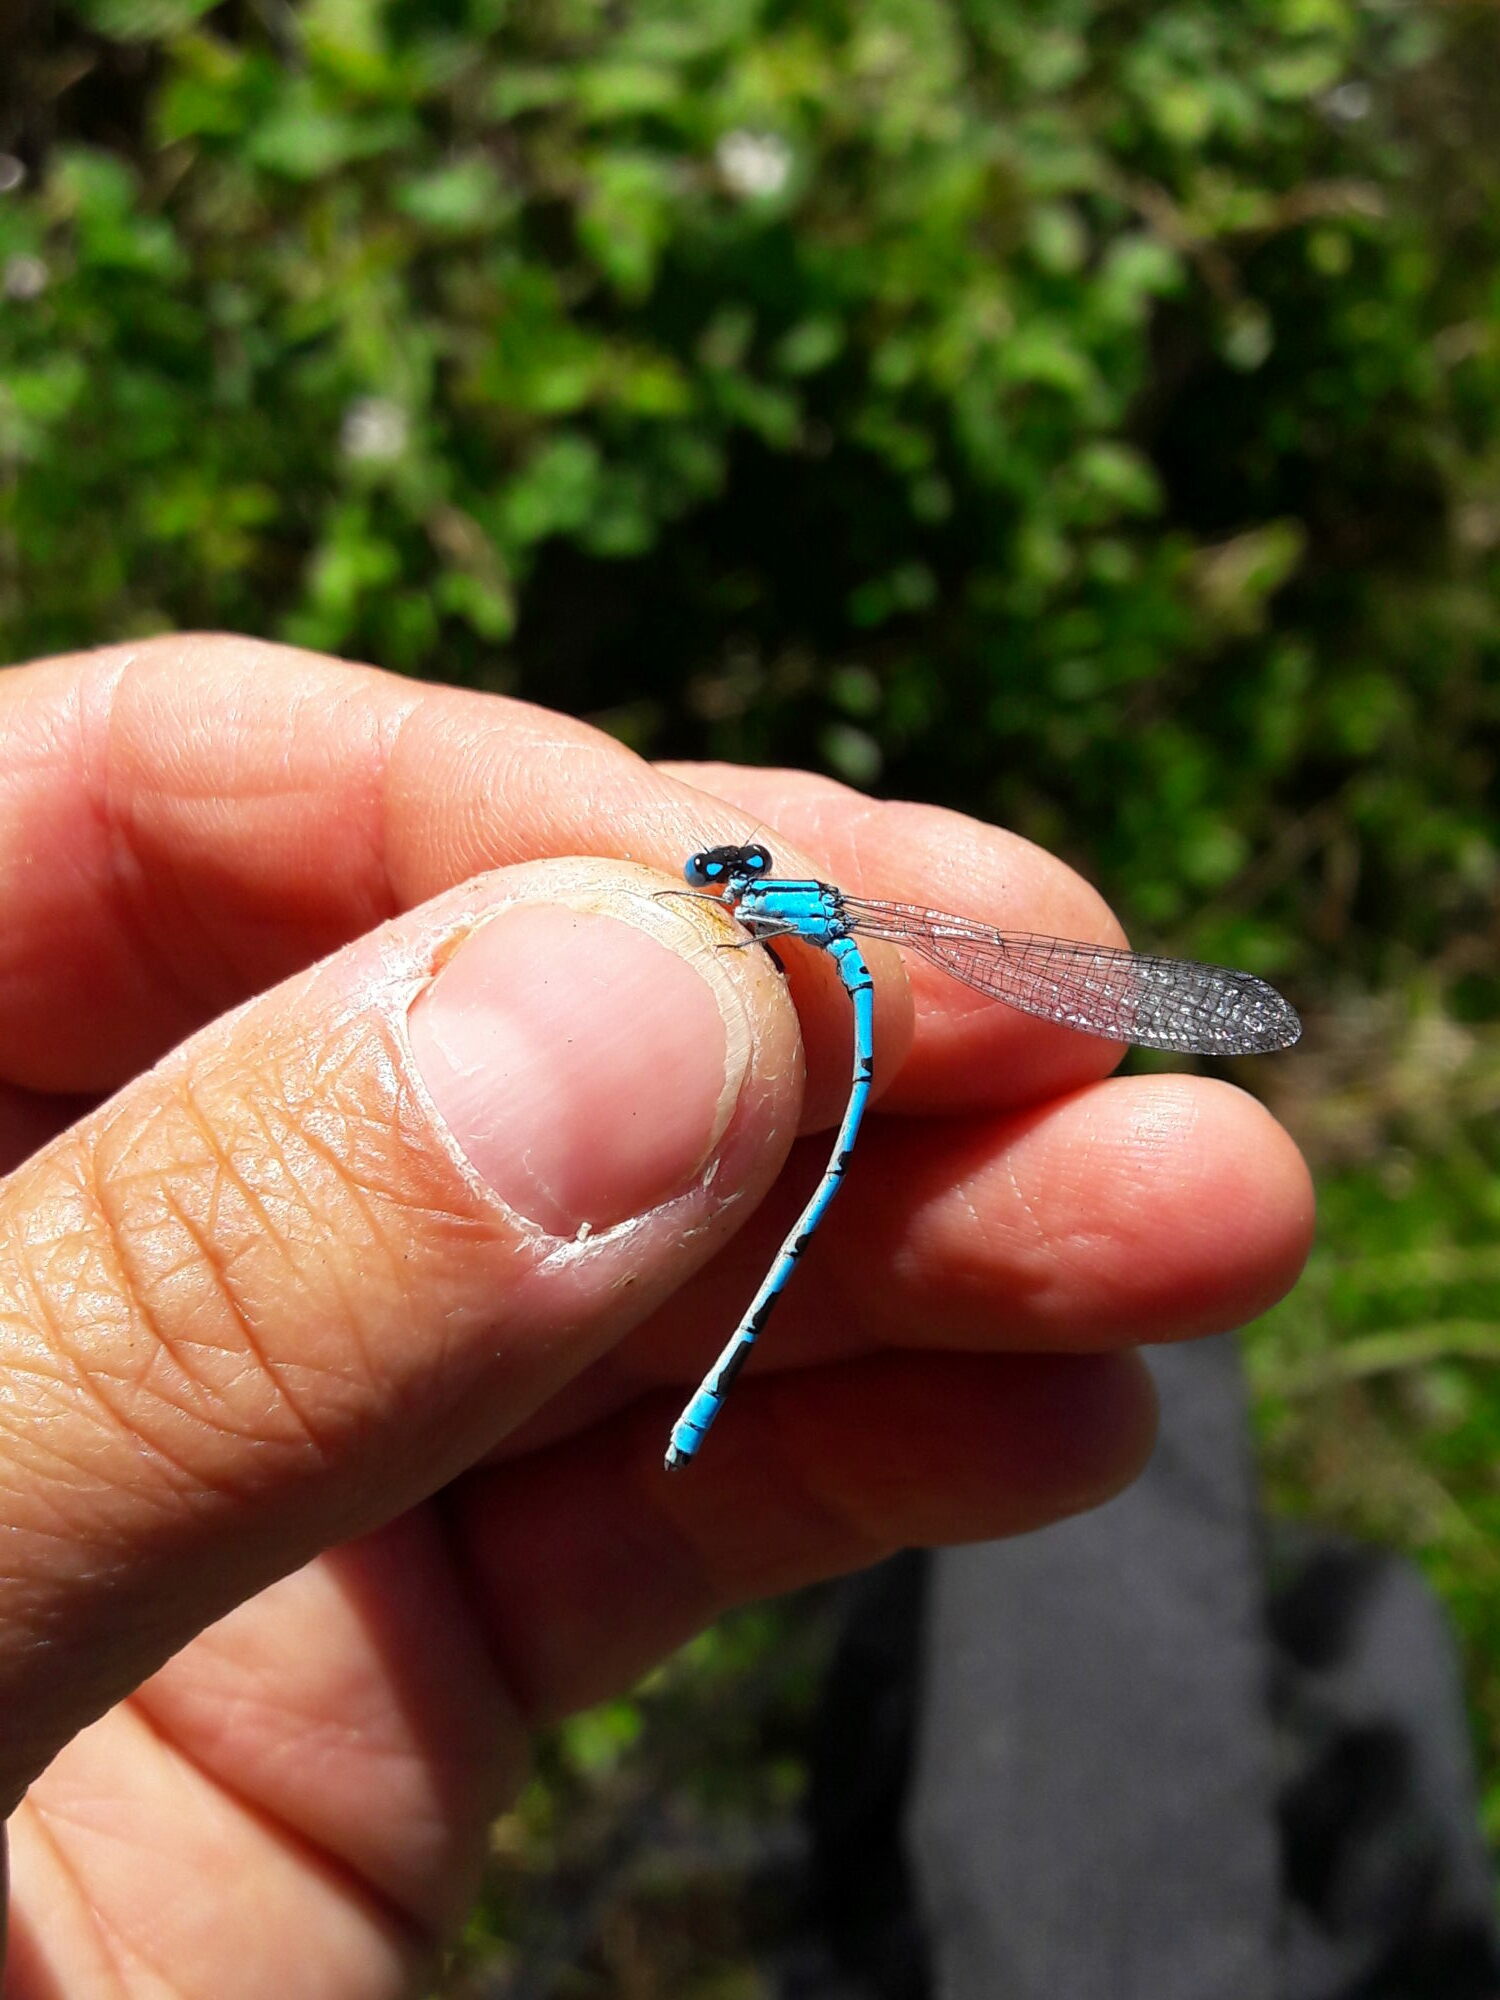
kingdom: Animalia
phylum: Arthropoda
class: Insecta
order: Odonata
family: Coenagrionidae
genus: Enallagma
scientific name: Enallagma cyathigerum
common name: Common blue damselfly
